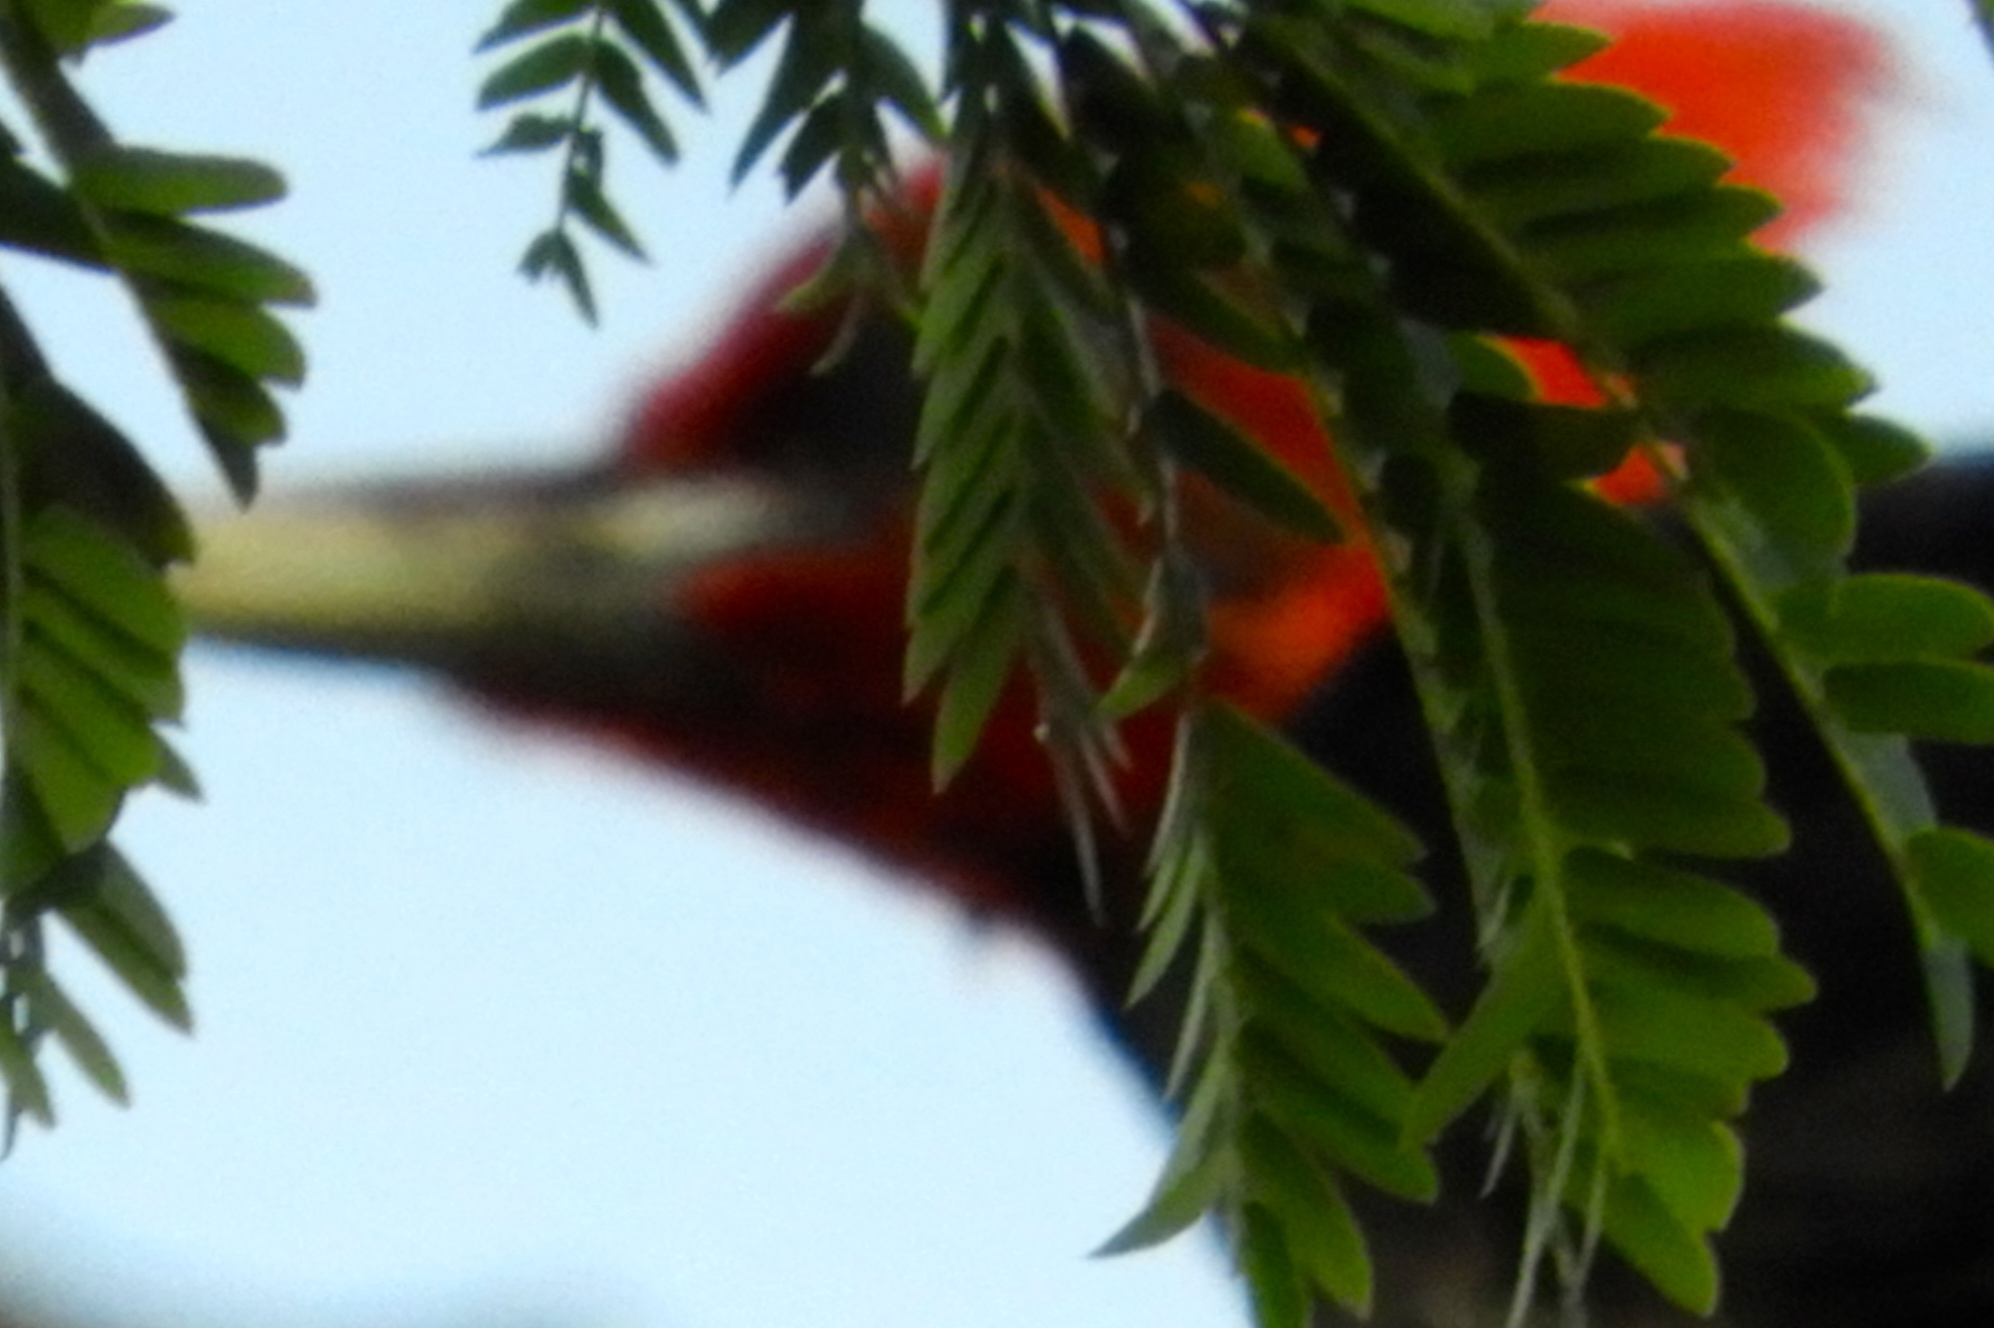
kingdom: Animalia
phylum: Chordata
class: Aves
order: Piciformes
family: Picidae
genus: Campephilus
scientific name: Campephilus guatemalensis
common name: Pale-billed woodpecker
